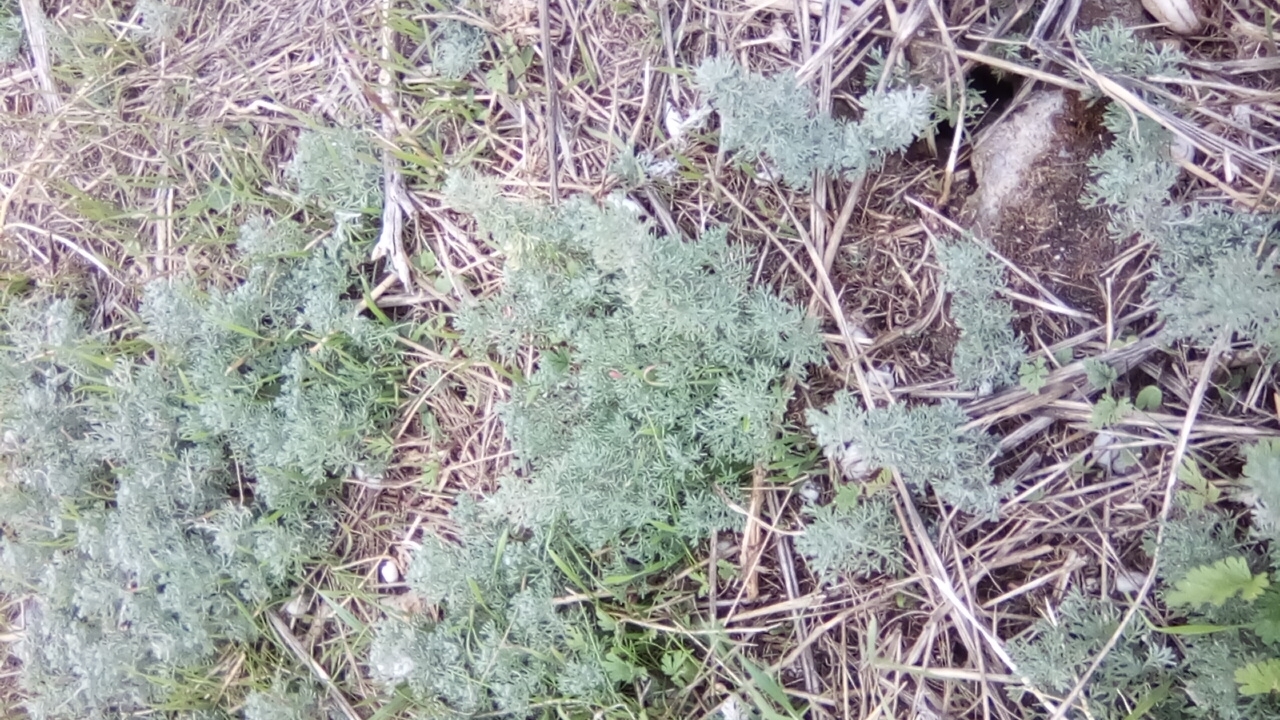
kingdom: Plantae
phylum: Tracheophyta
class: Magnoliopsida
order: Asterales
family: Asteraceae
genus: Artemisia
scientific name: Artemisia austriaca
